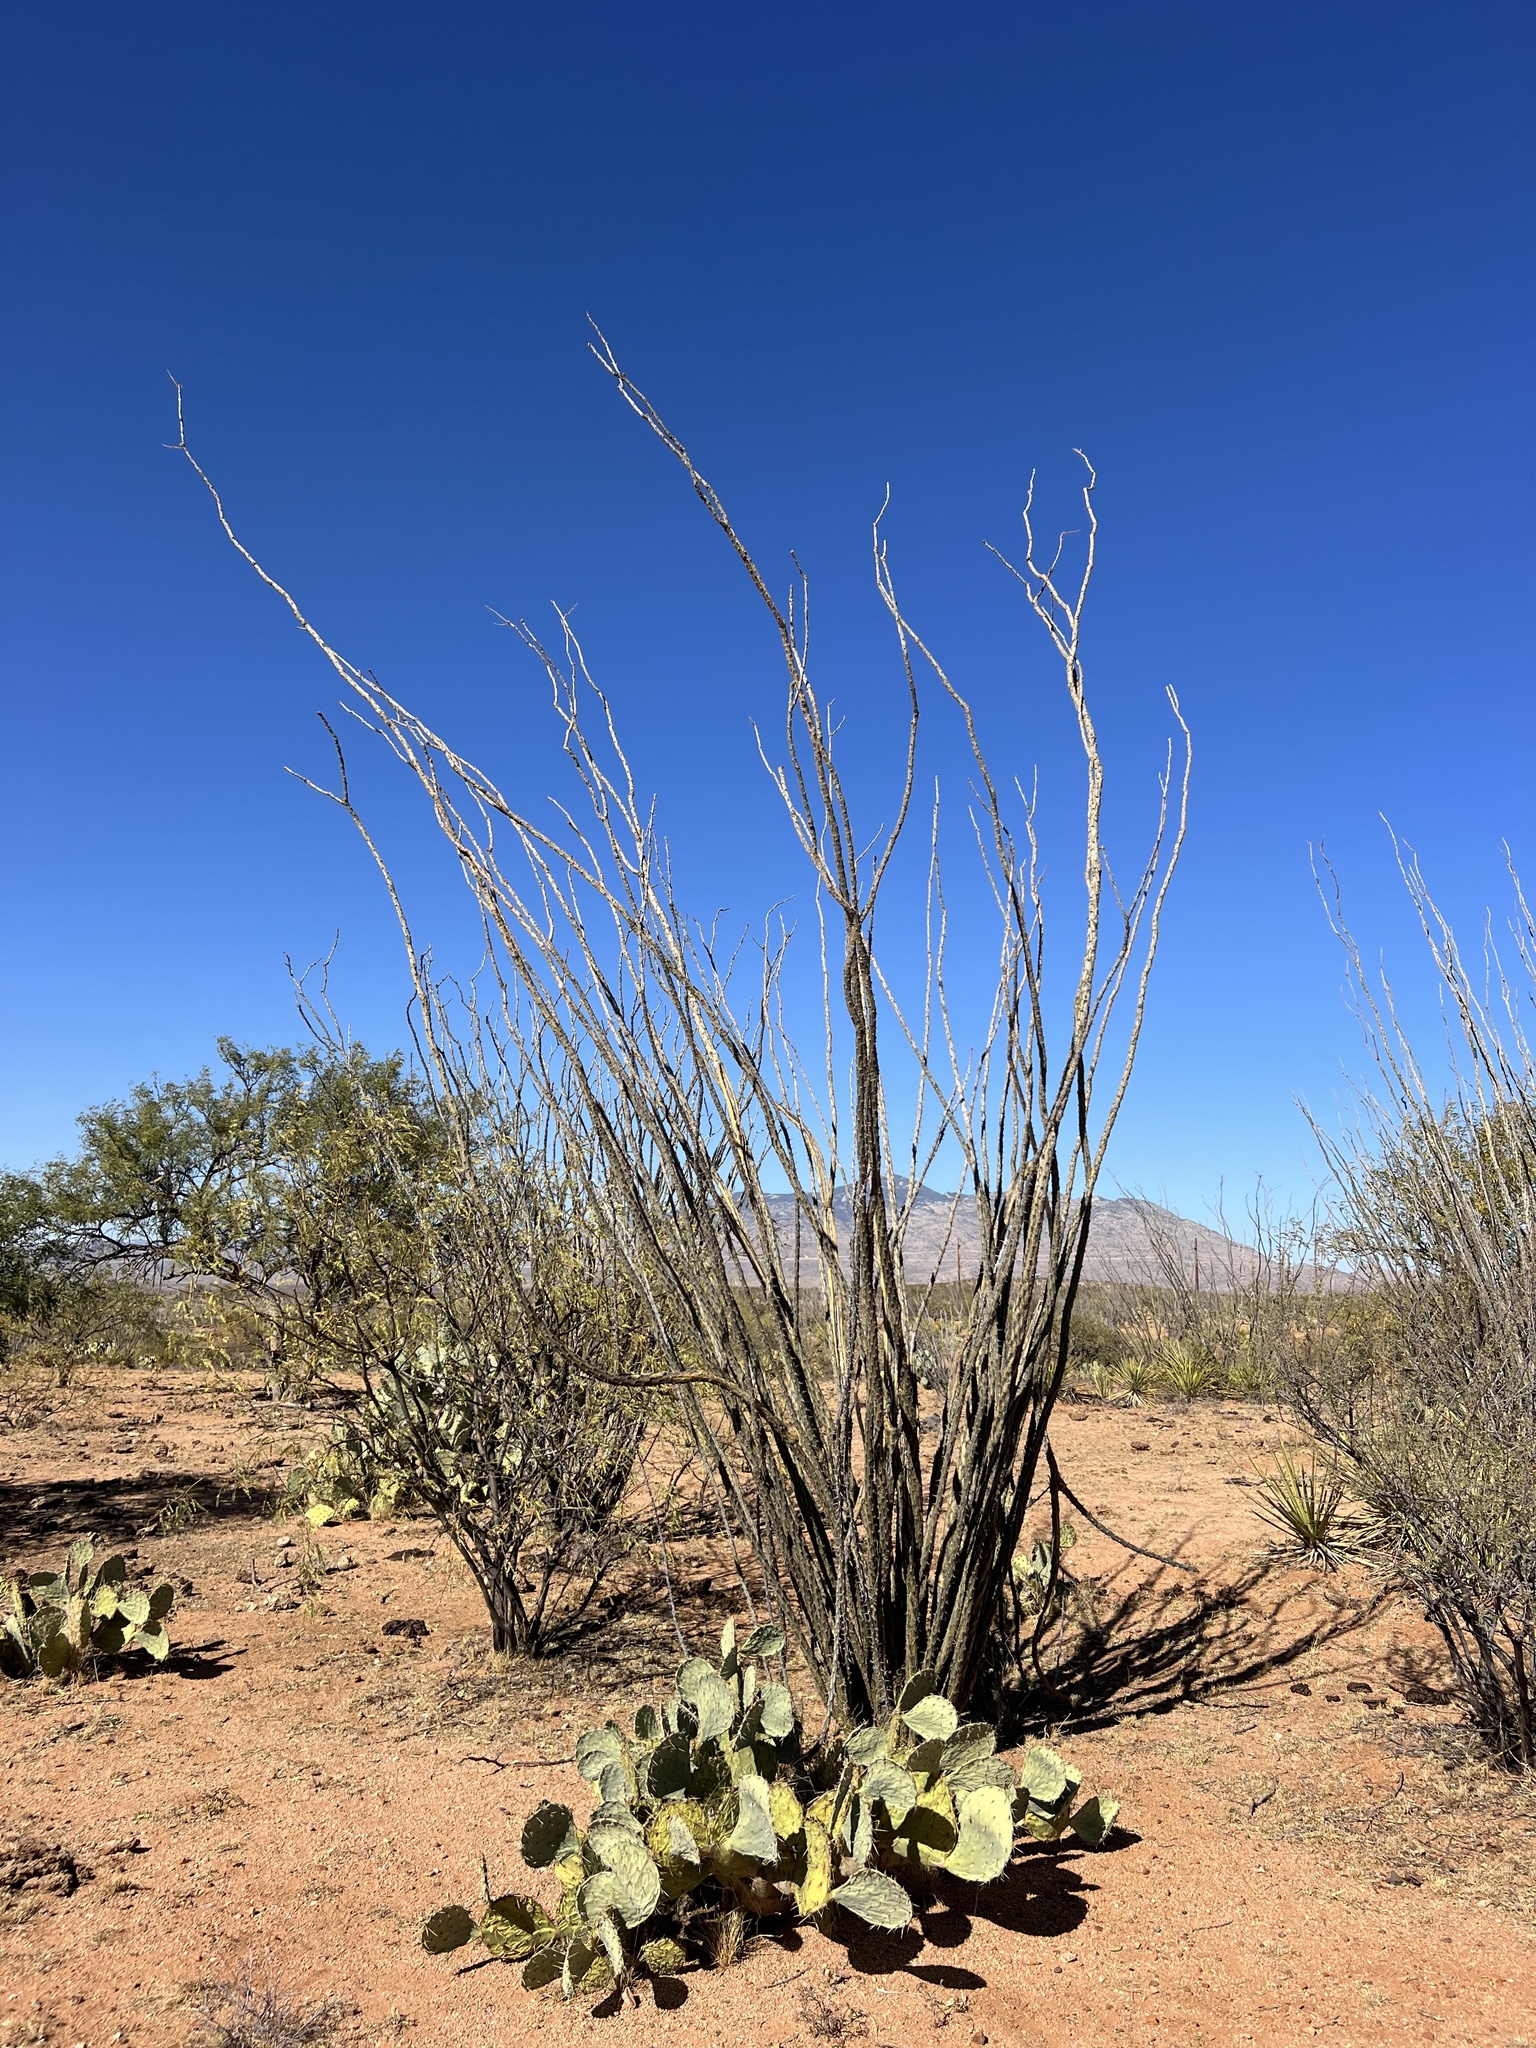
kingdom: Plantae
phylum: Tracheophyta
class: Magnoliopsida
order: Ericales
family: Fouquieriaceae
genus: Fouquieria
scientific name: Fouquieria splendens
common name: Vine-cactus
